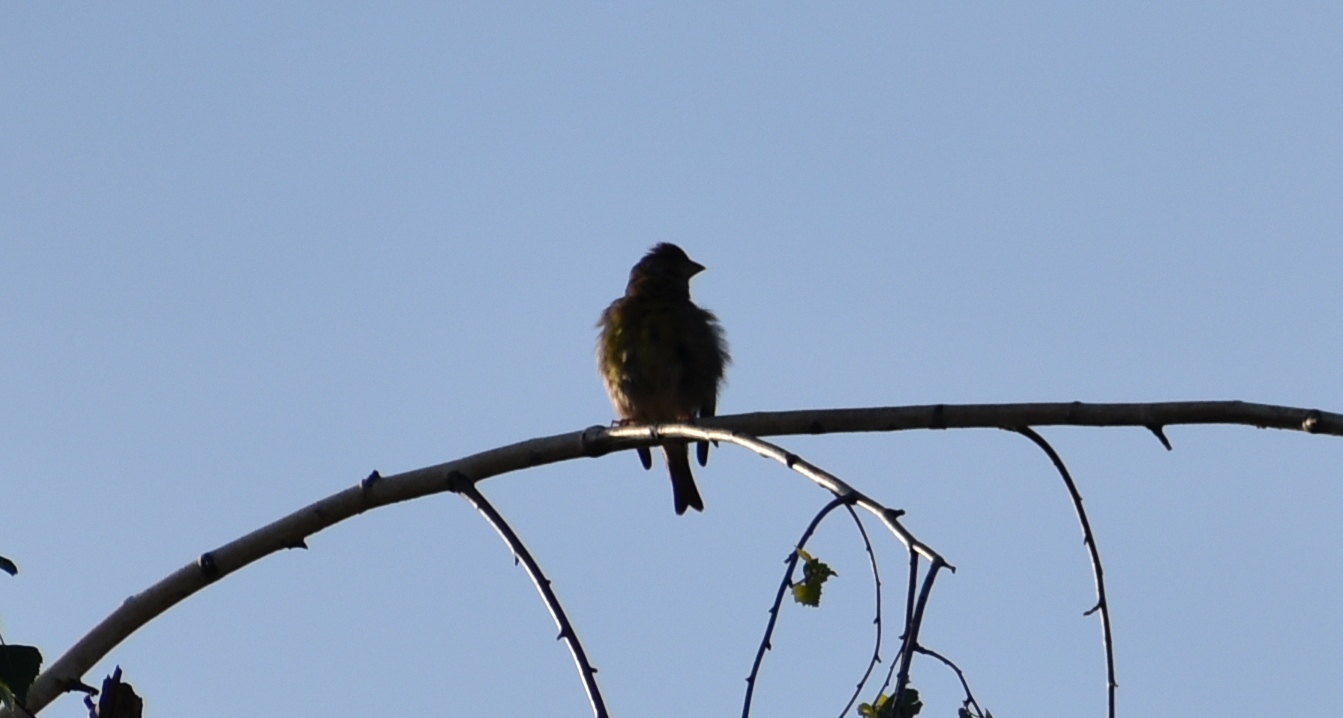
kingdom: Plantae
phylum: Tracheophyta
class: Liliopsida
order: Poales
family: Poaceae
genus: Chloris
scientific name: Chloris chloris
